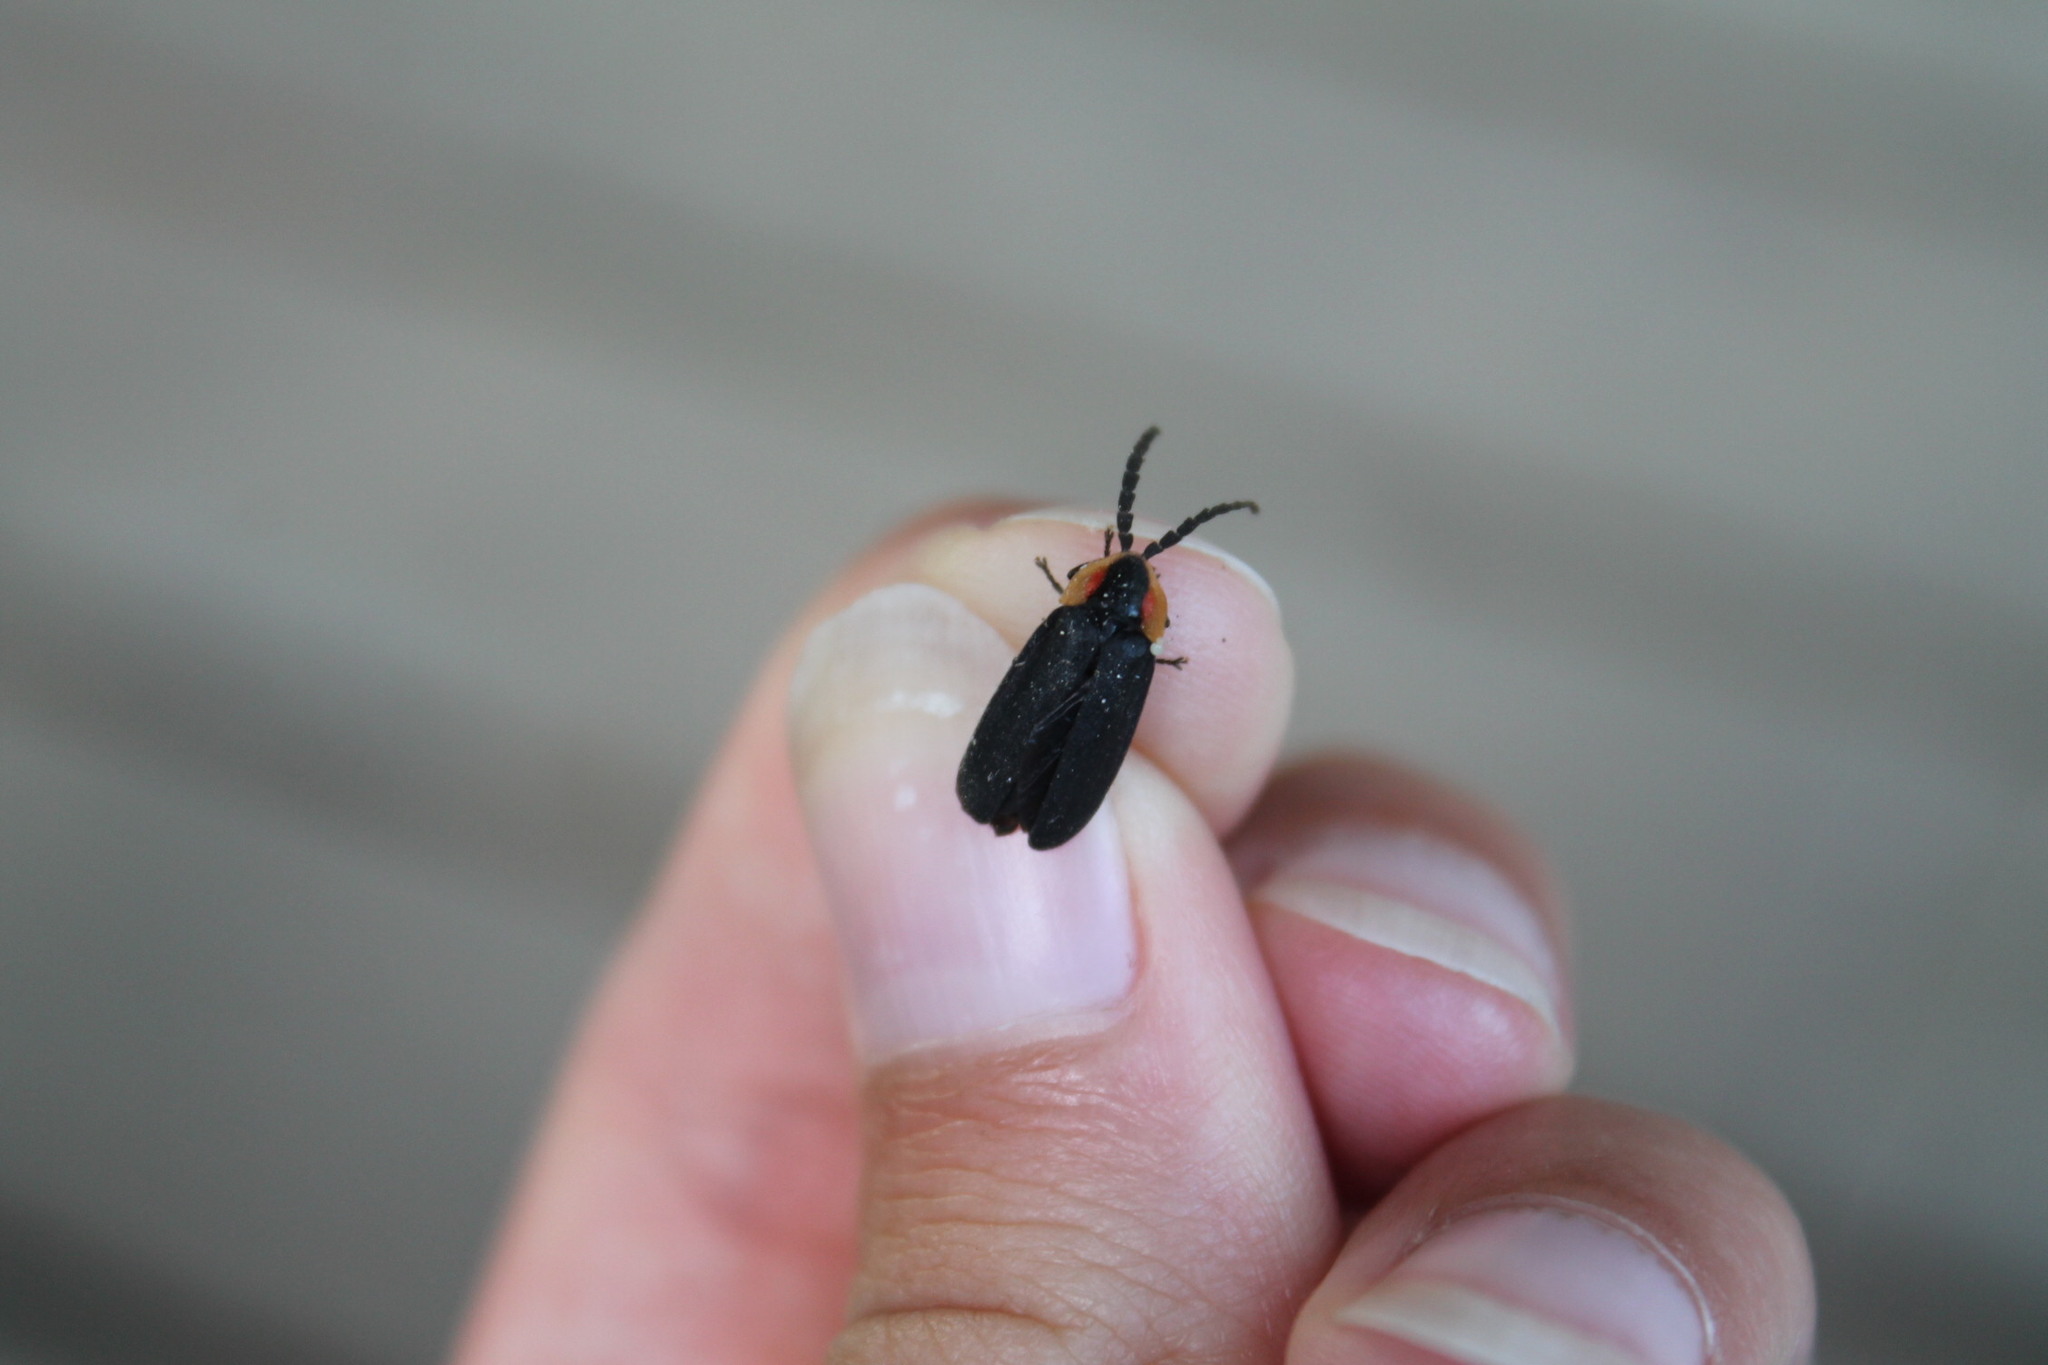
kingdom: Animalia
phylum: Arthropoda
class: Insecta
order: Coleoptera
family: Lampyridae
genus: Lucidota
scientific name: Lucidota atra
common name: Black firefly
